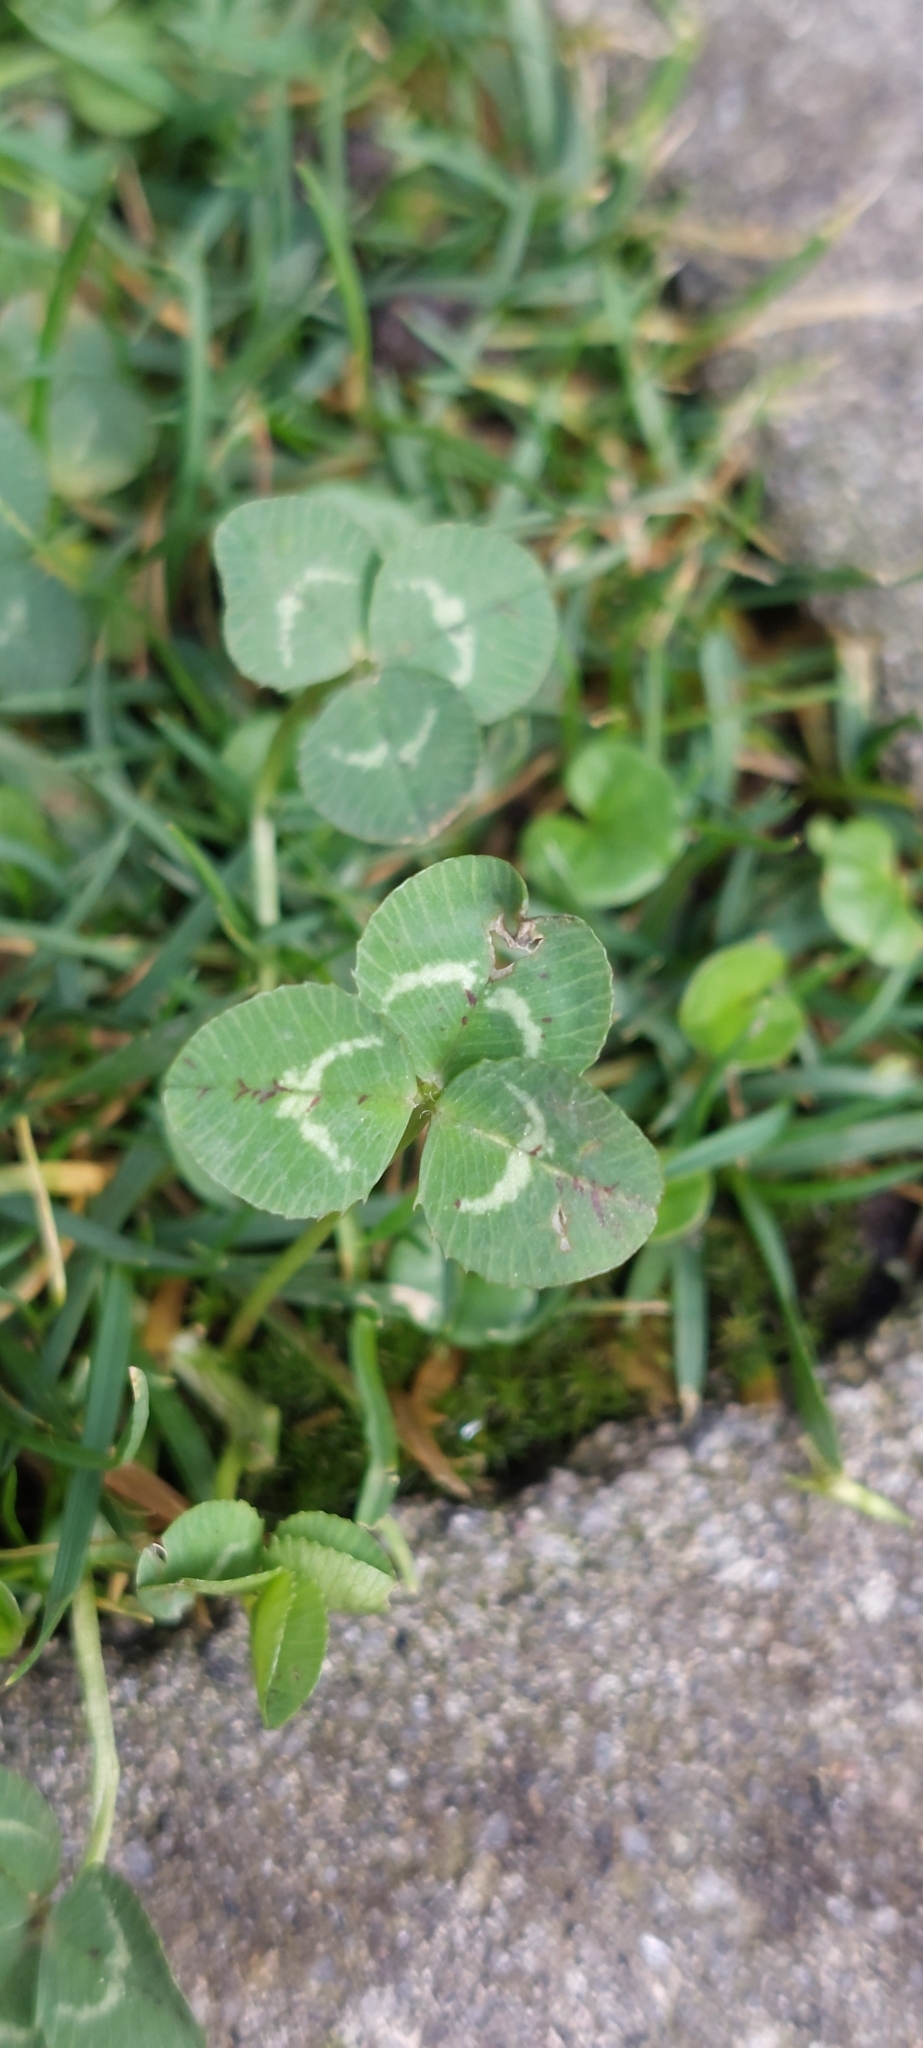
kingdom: Plantae
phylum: Tracheophyta
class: Magnoliopsida
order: Fabales
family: Fabaceae
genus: Trifolium
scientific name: Trifolium repens
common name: White clover
